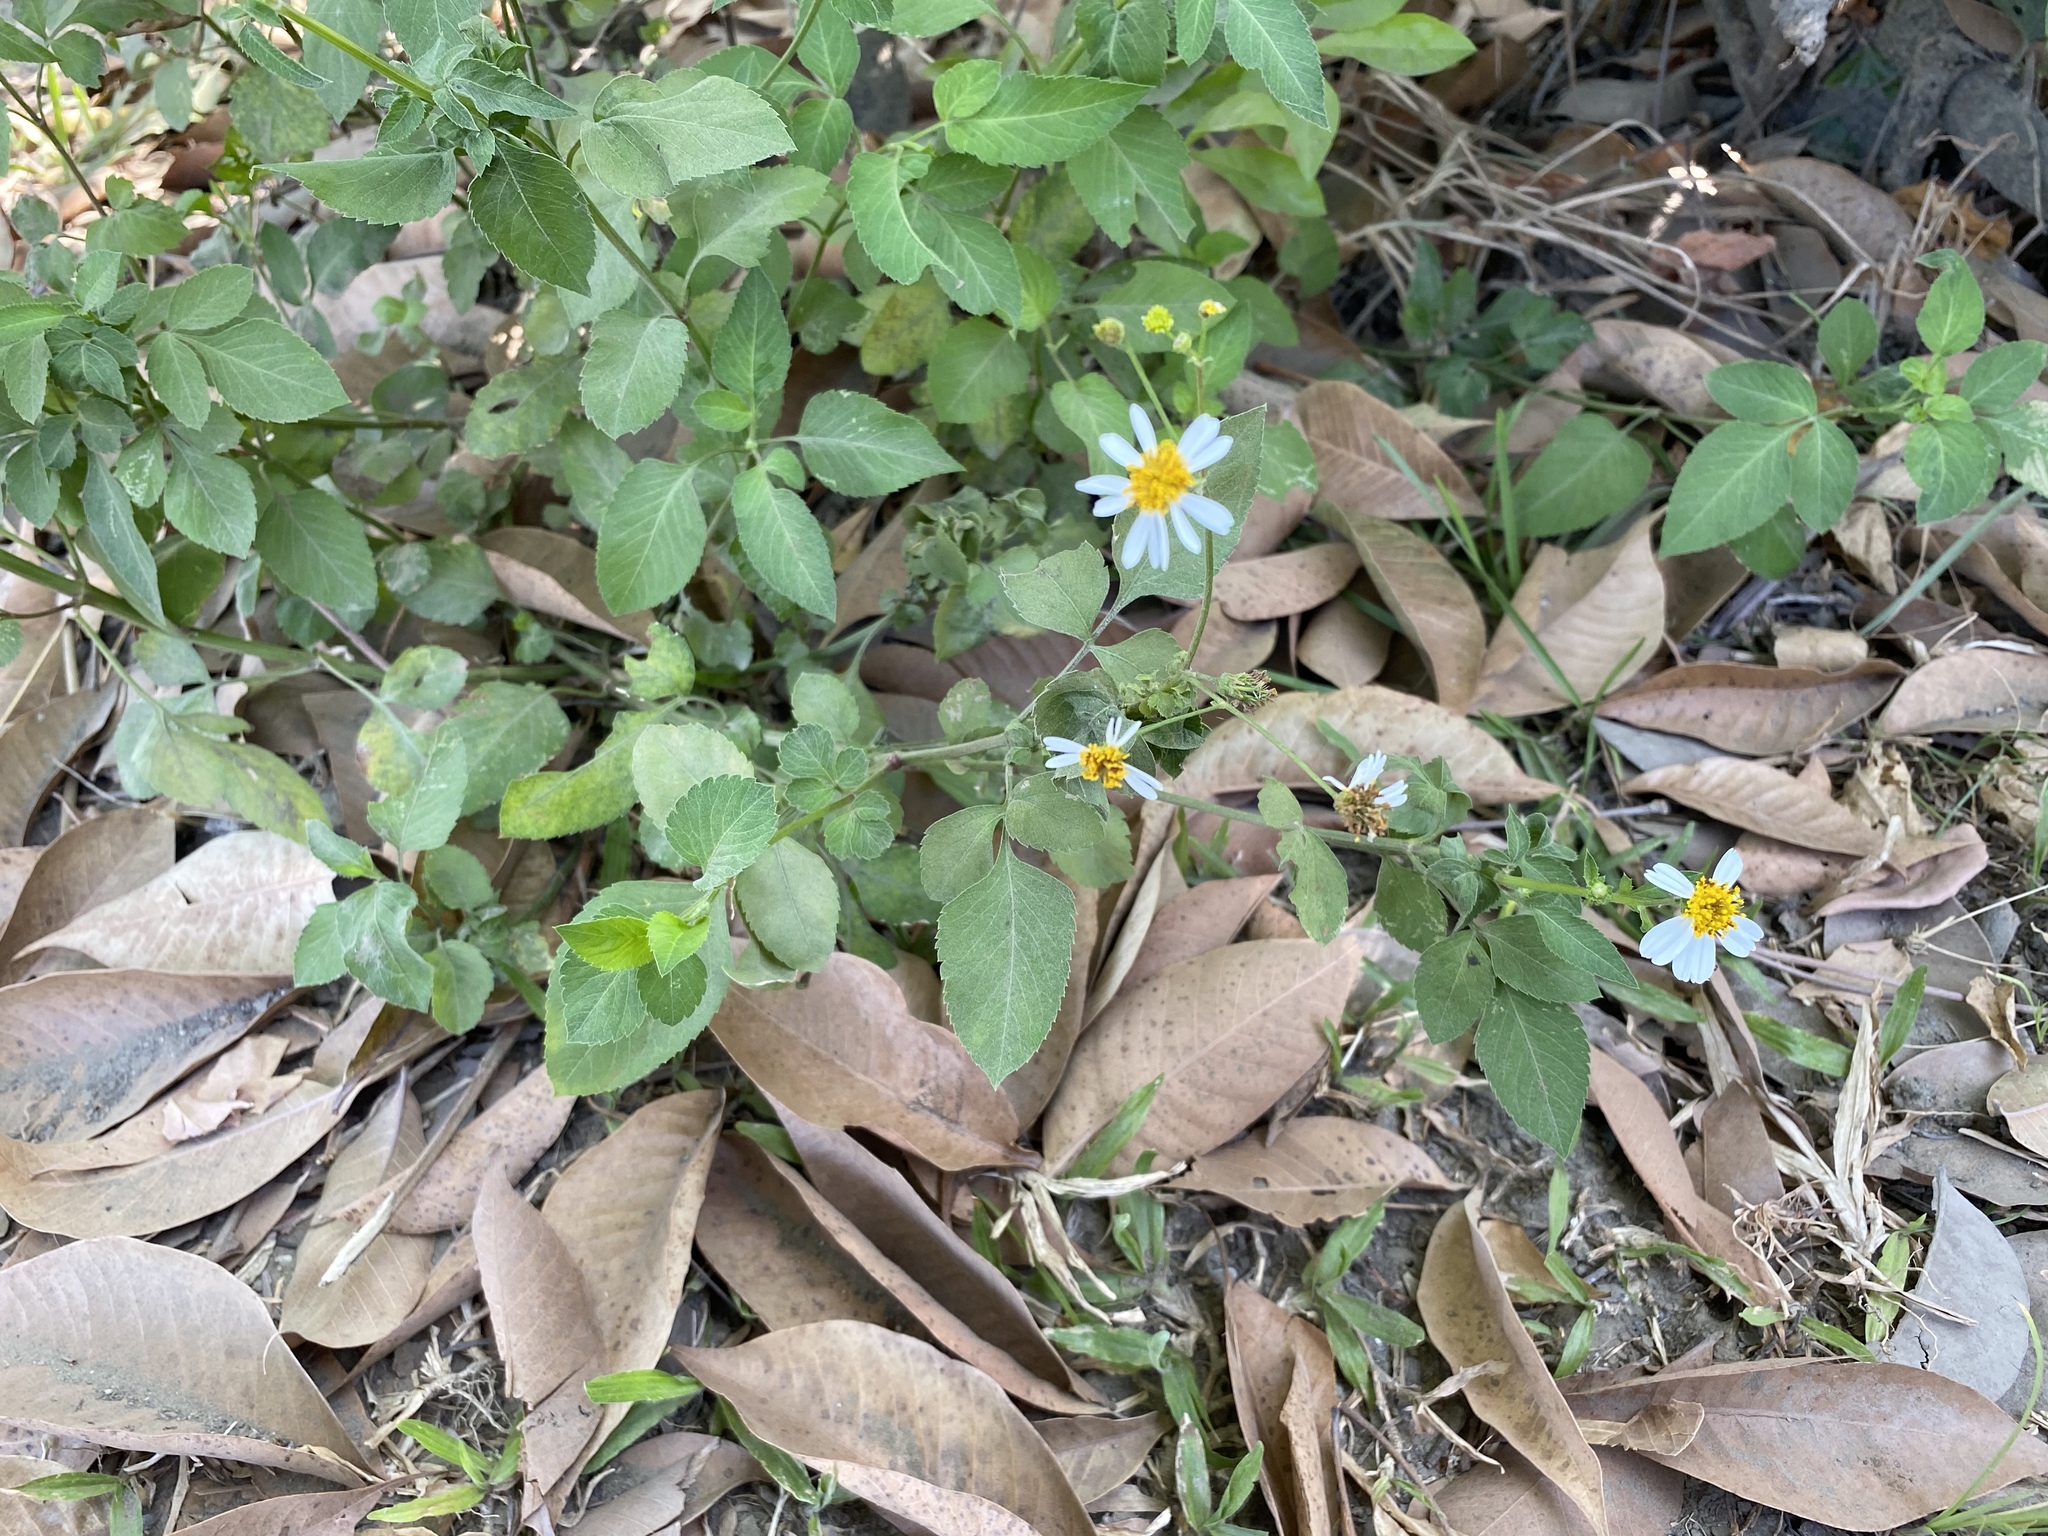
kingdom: Plantae
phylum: Tracheophyta
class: Magnoliopsida
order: Asterales
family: Asteraceae
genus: Bidens
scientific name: Bidens alba
